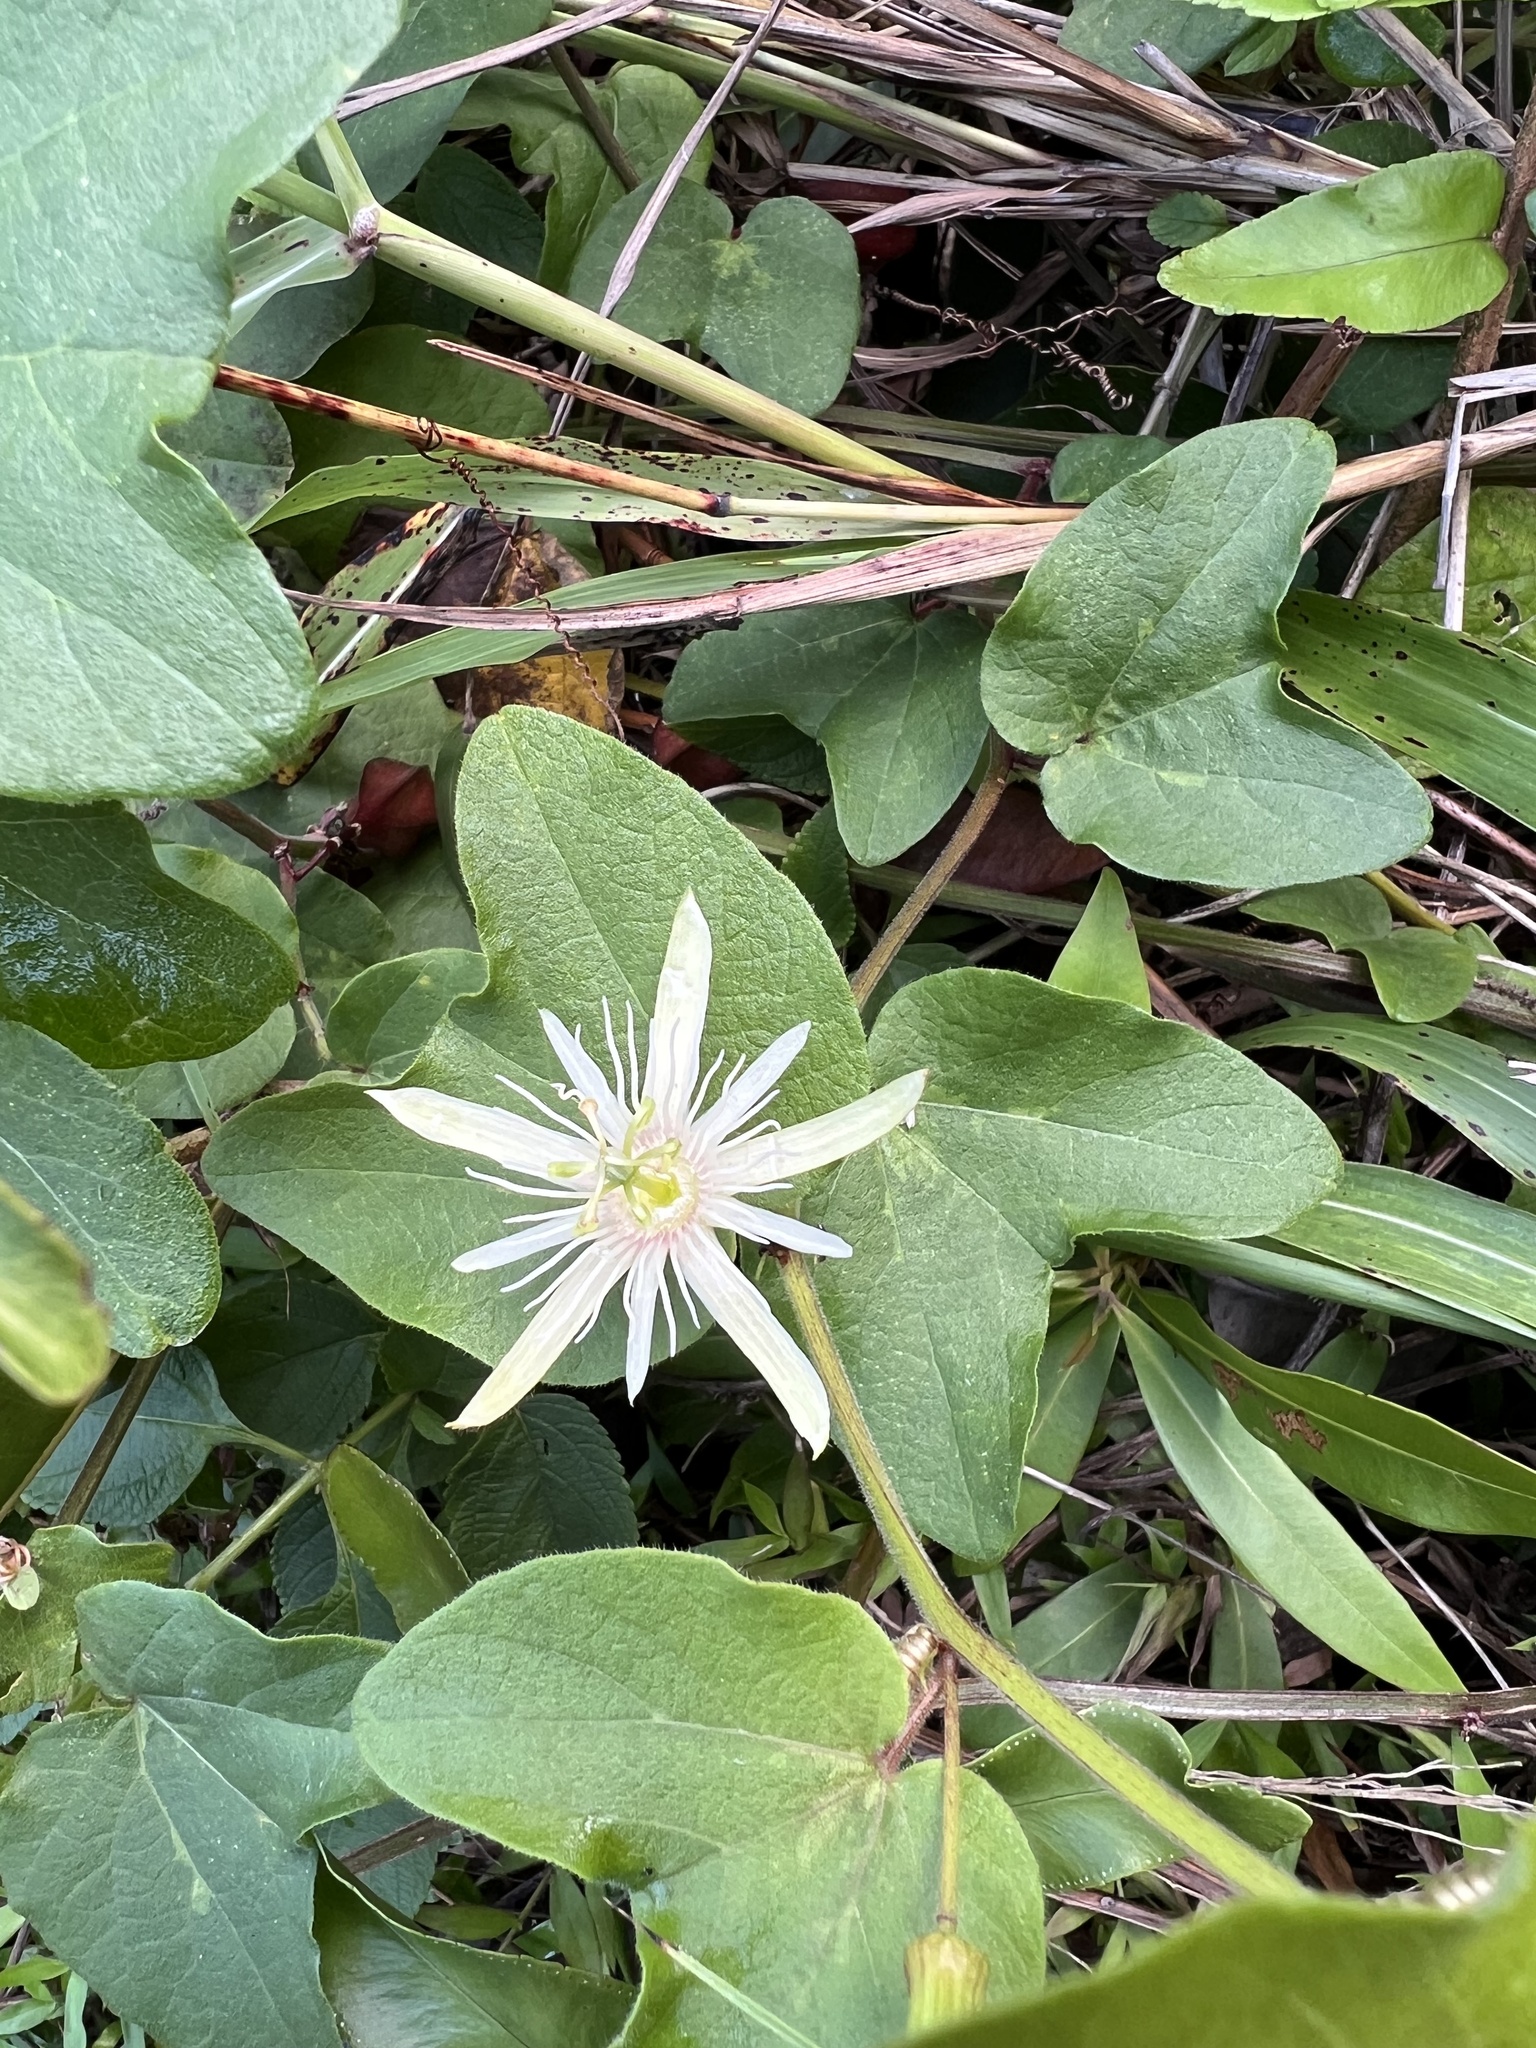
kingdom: Plantae
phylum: Tracheophyta
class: Magnoliopsida
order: Malpighiales
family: Passifloraceae
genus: Passiflora
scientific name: Passiflora rubra
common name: Snakeberry vine
